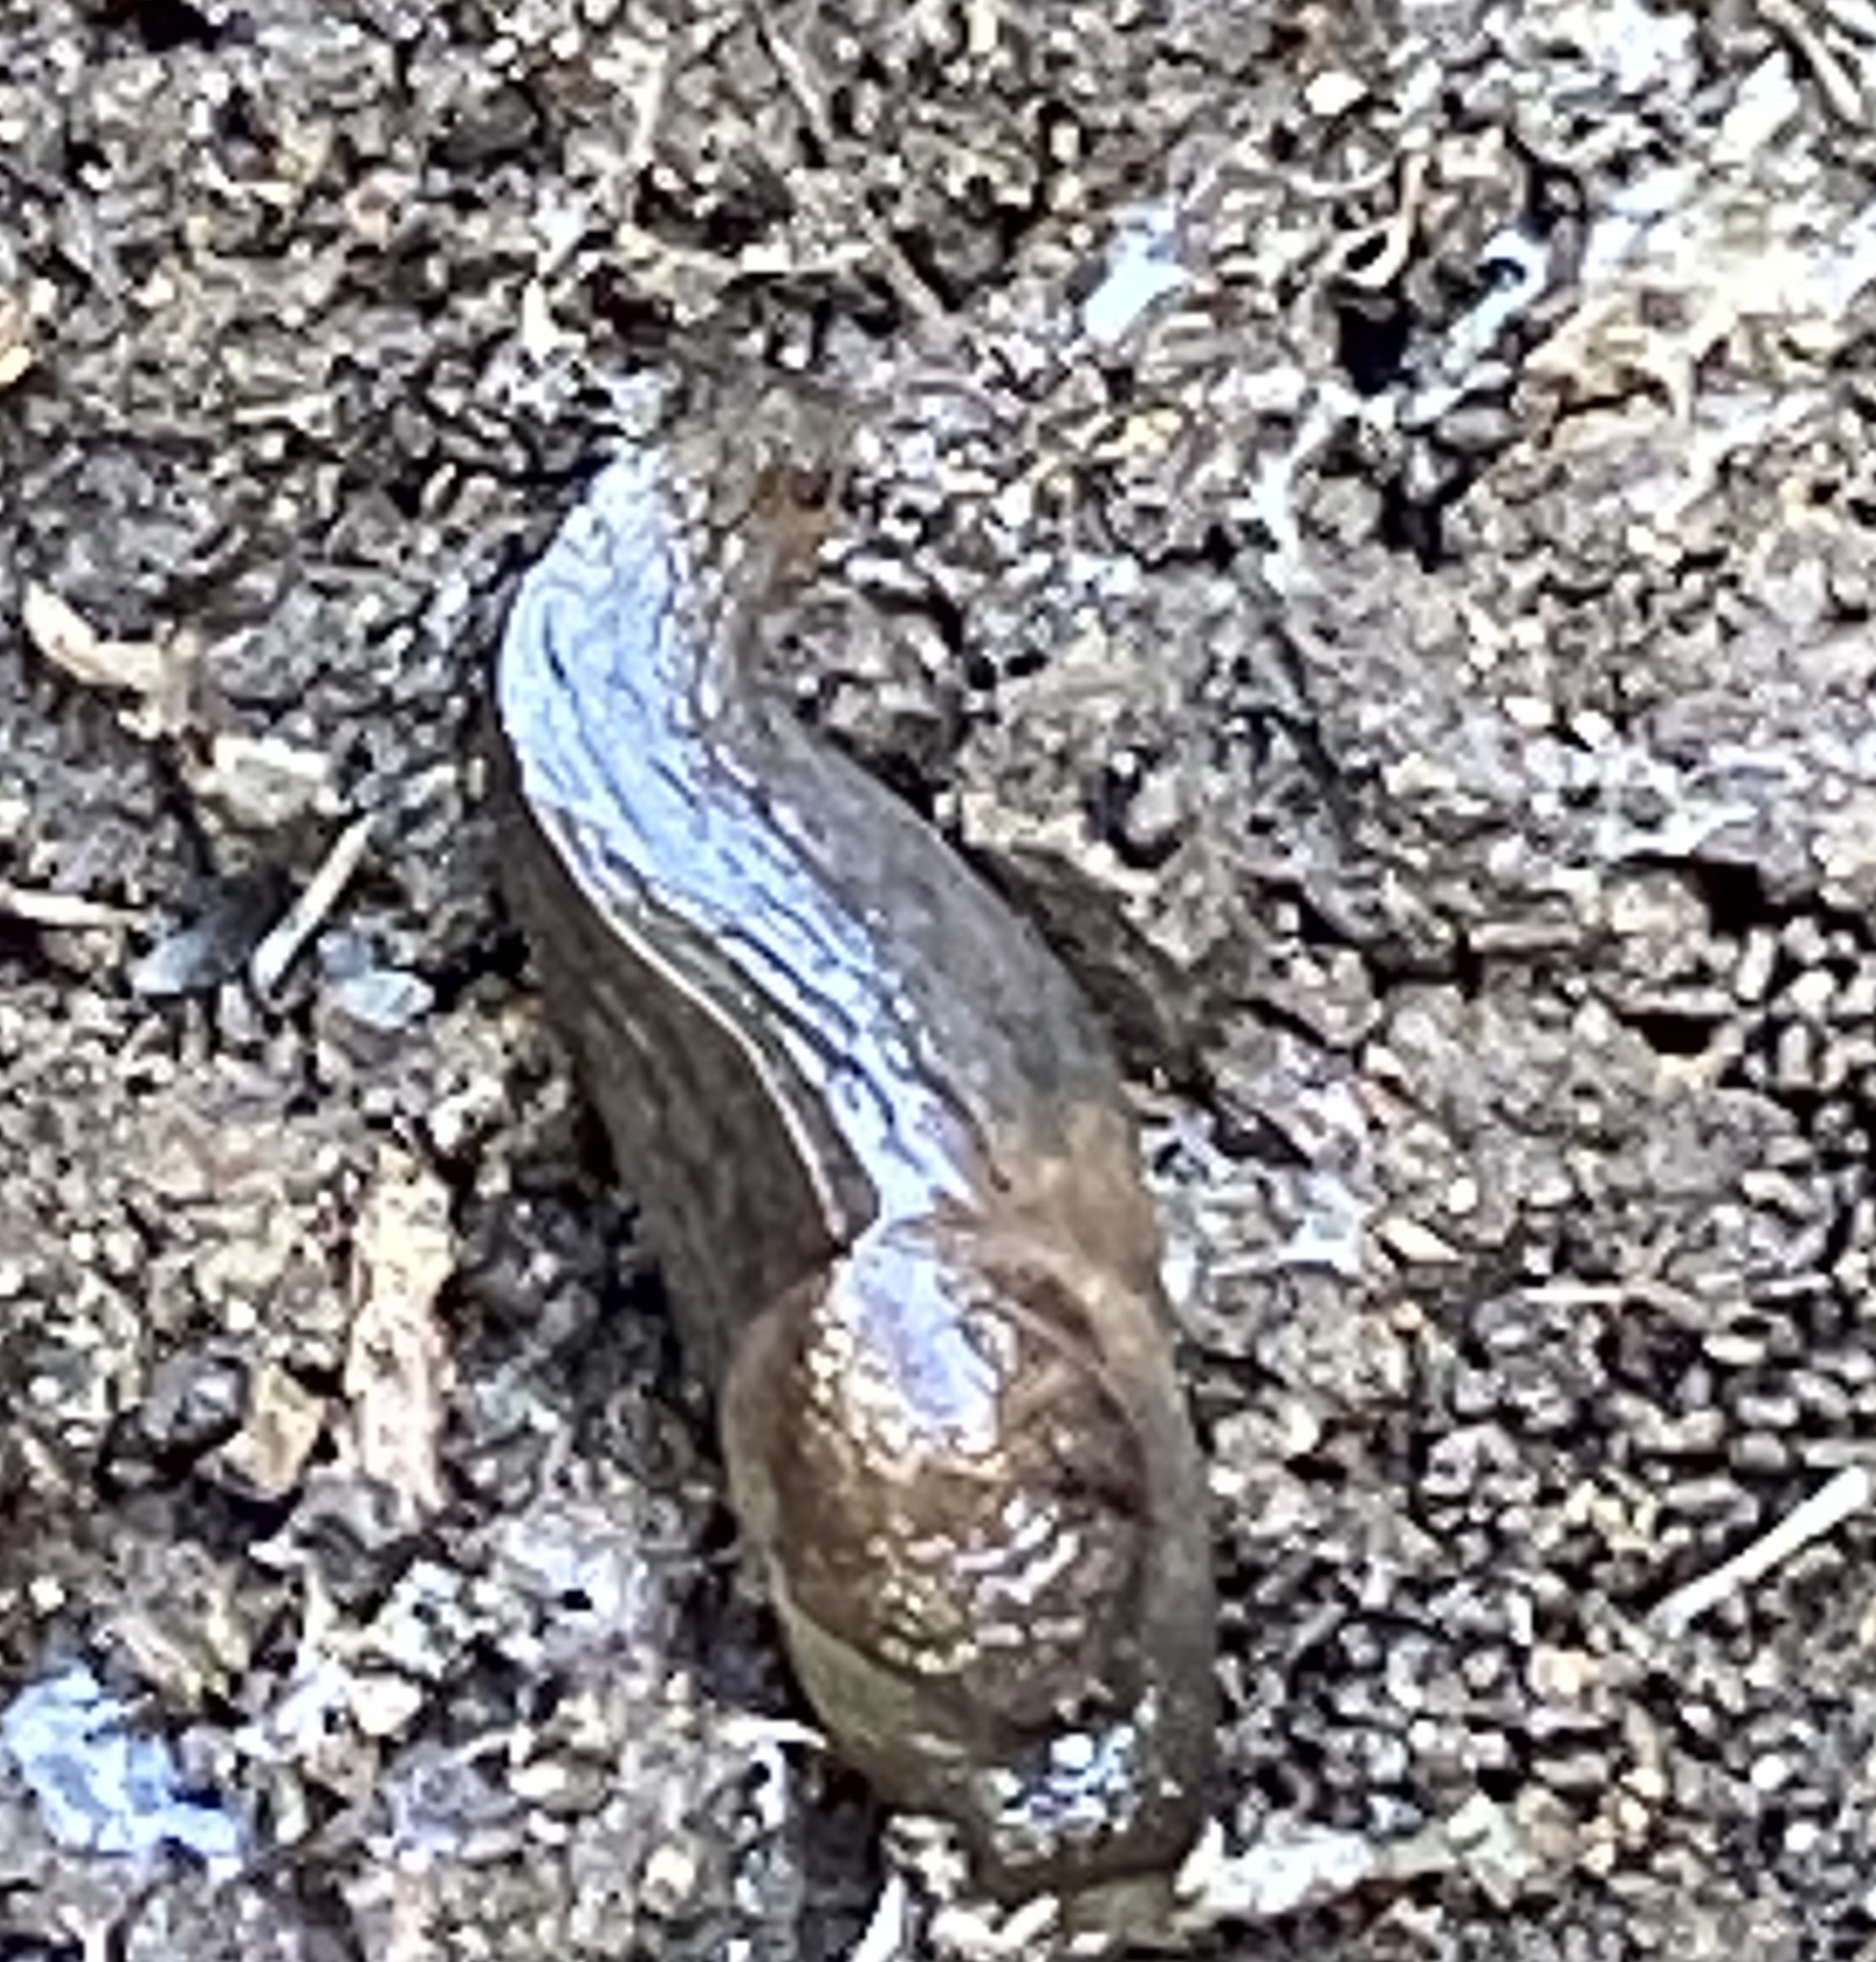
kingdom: Animalia
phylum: Mollusca
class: Gastropoda
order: Stylommatophora
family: Milacidae
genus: Milax
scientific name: Milax gagates
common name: Greenhouse slug
